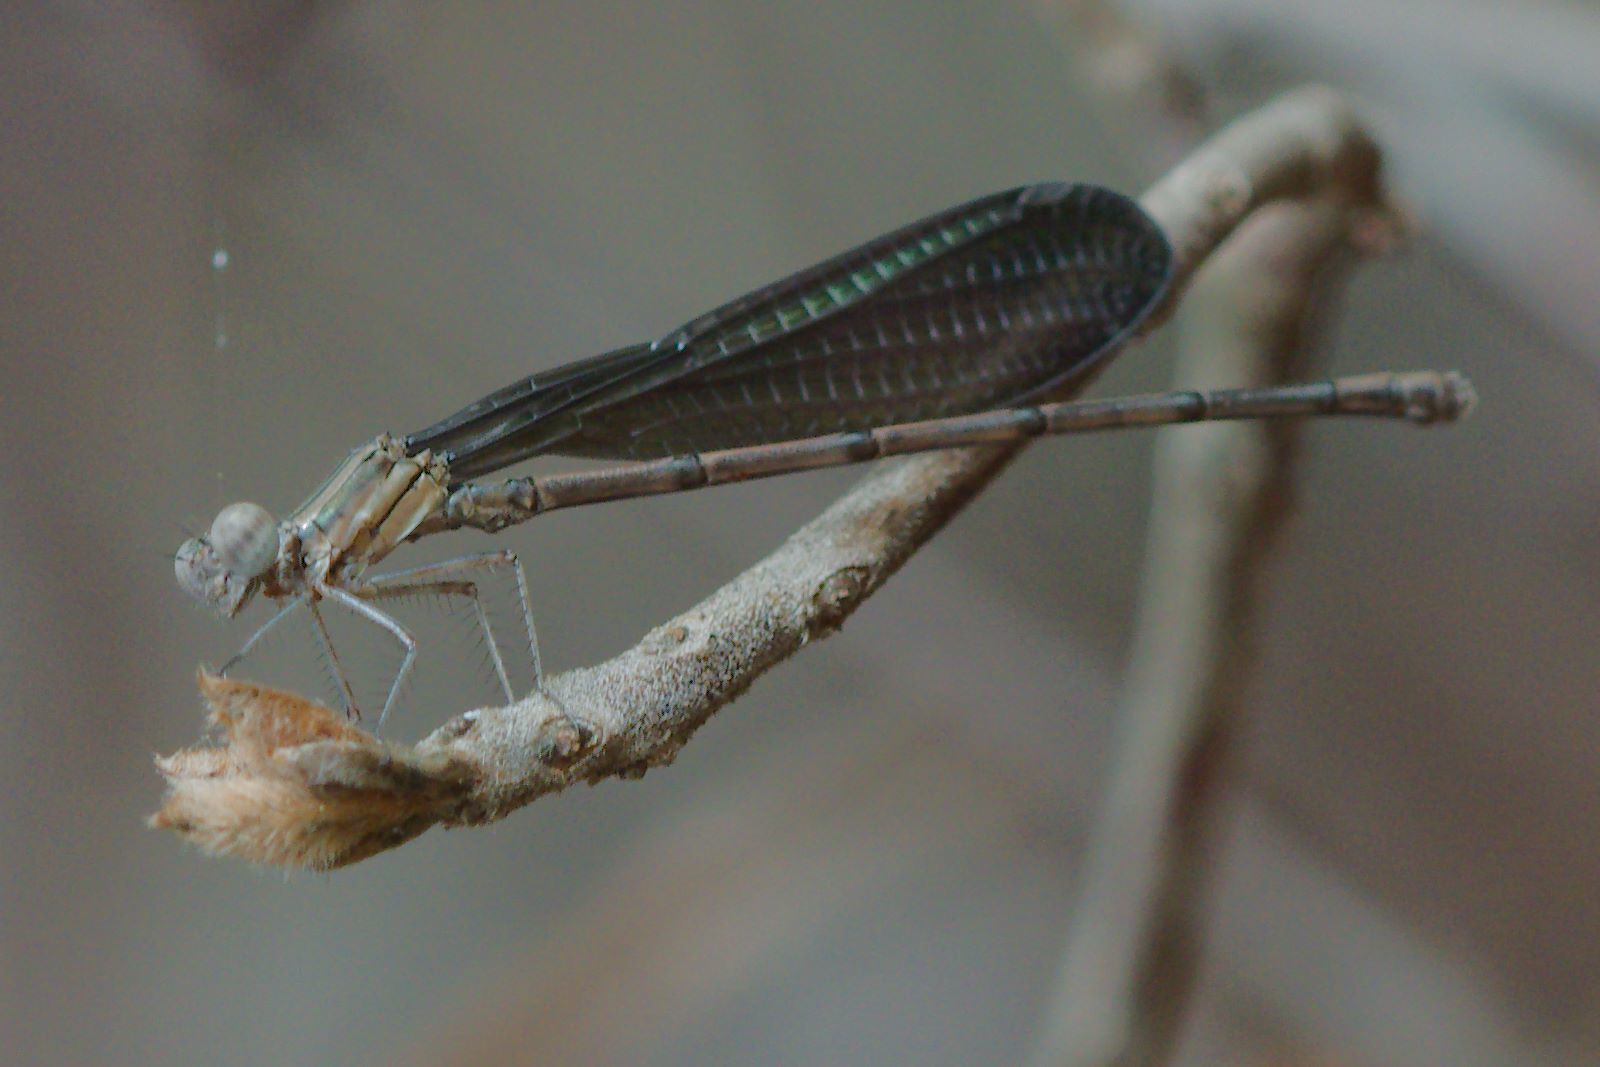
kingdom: Animalia
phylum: Arthropoda
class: Insecta
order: Odonata
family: Coenagrionidae
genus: Argia
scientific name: Argia fumipennis
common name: Variable dancer
